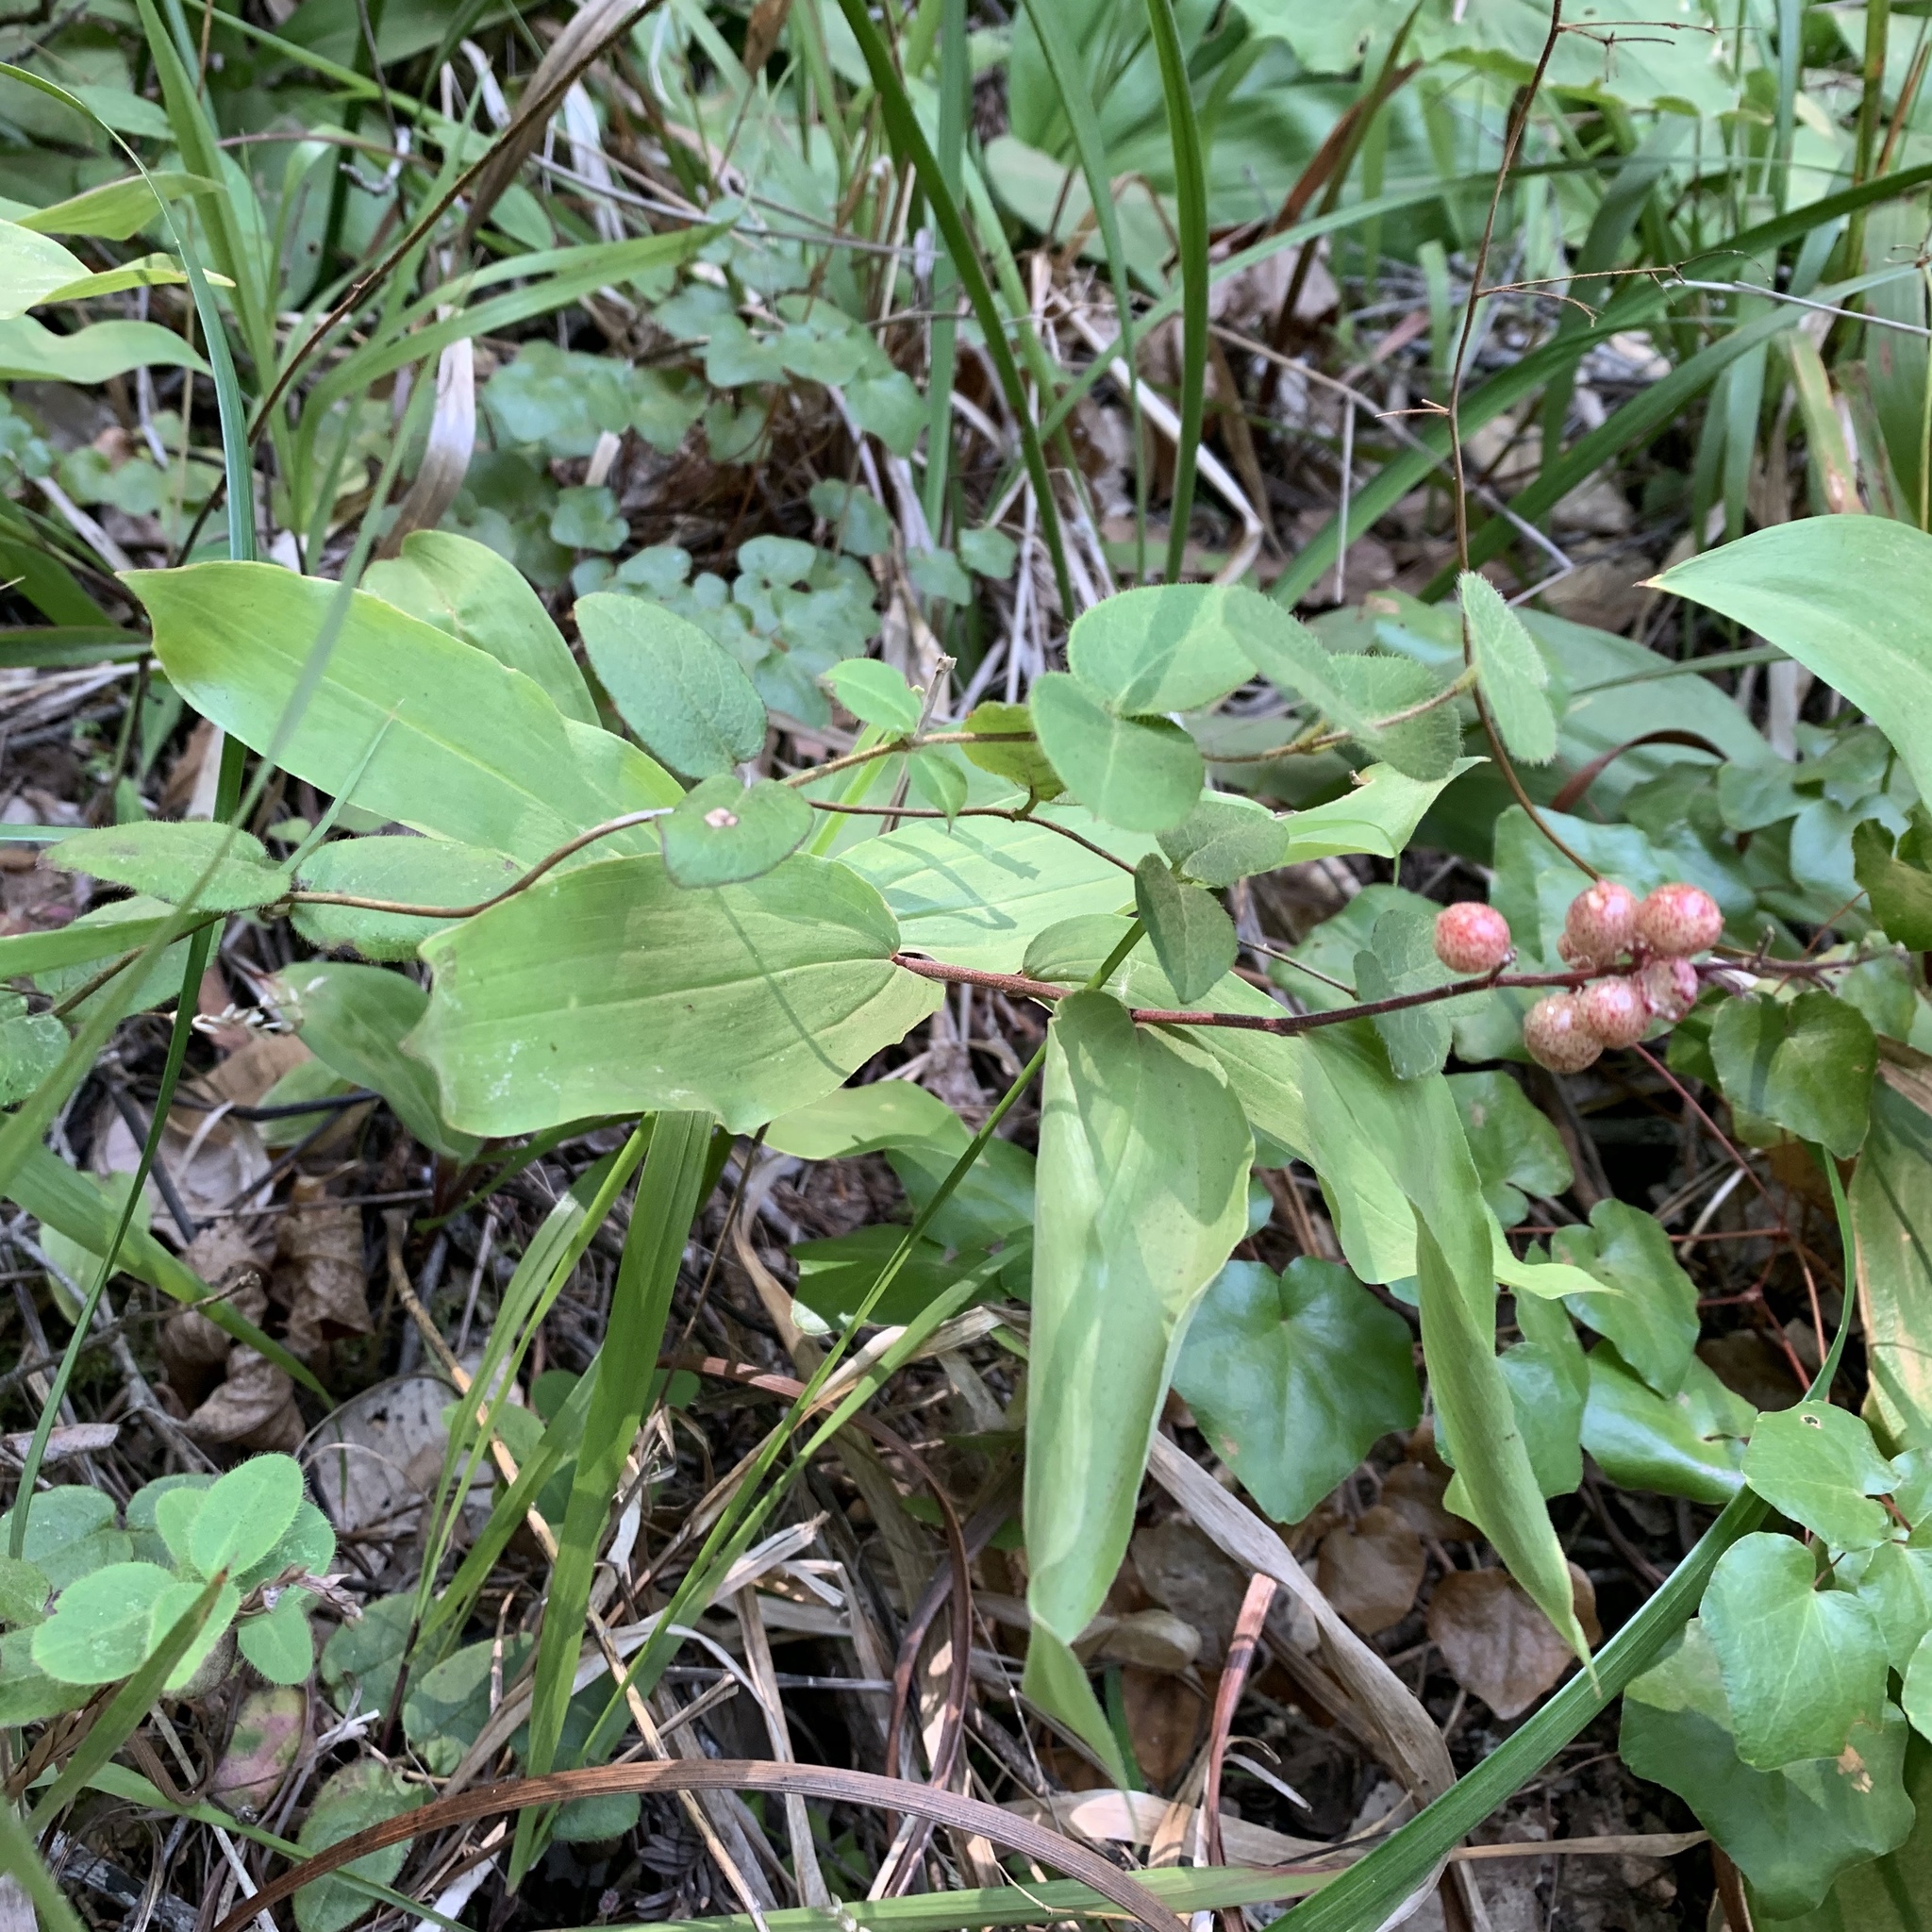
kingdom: Plantae
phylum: Tracheophyta
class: Liliopsida
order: Asparagales
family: Asparagaceae
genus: Maianthemum
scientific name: Maianthemum racemosum
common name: False spikenard
